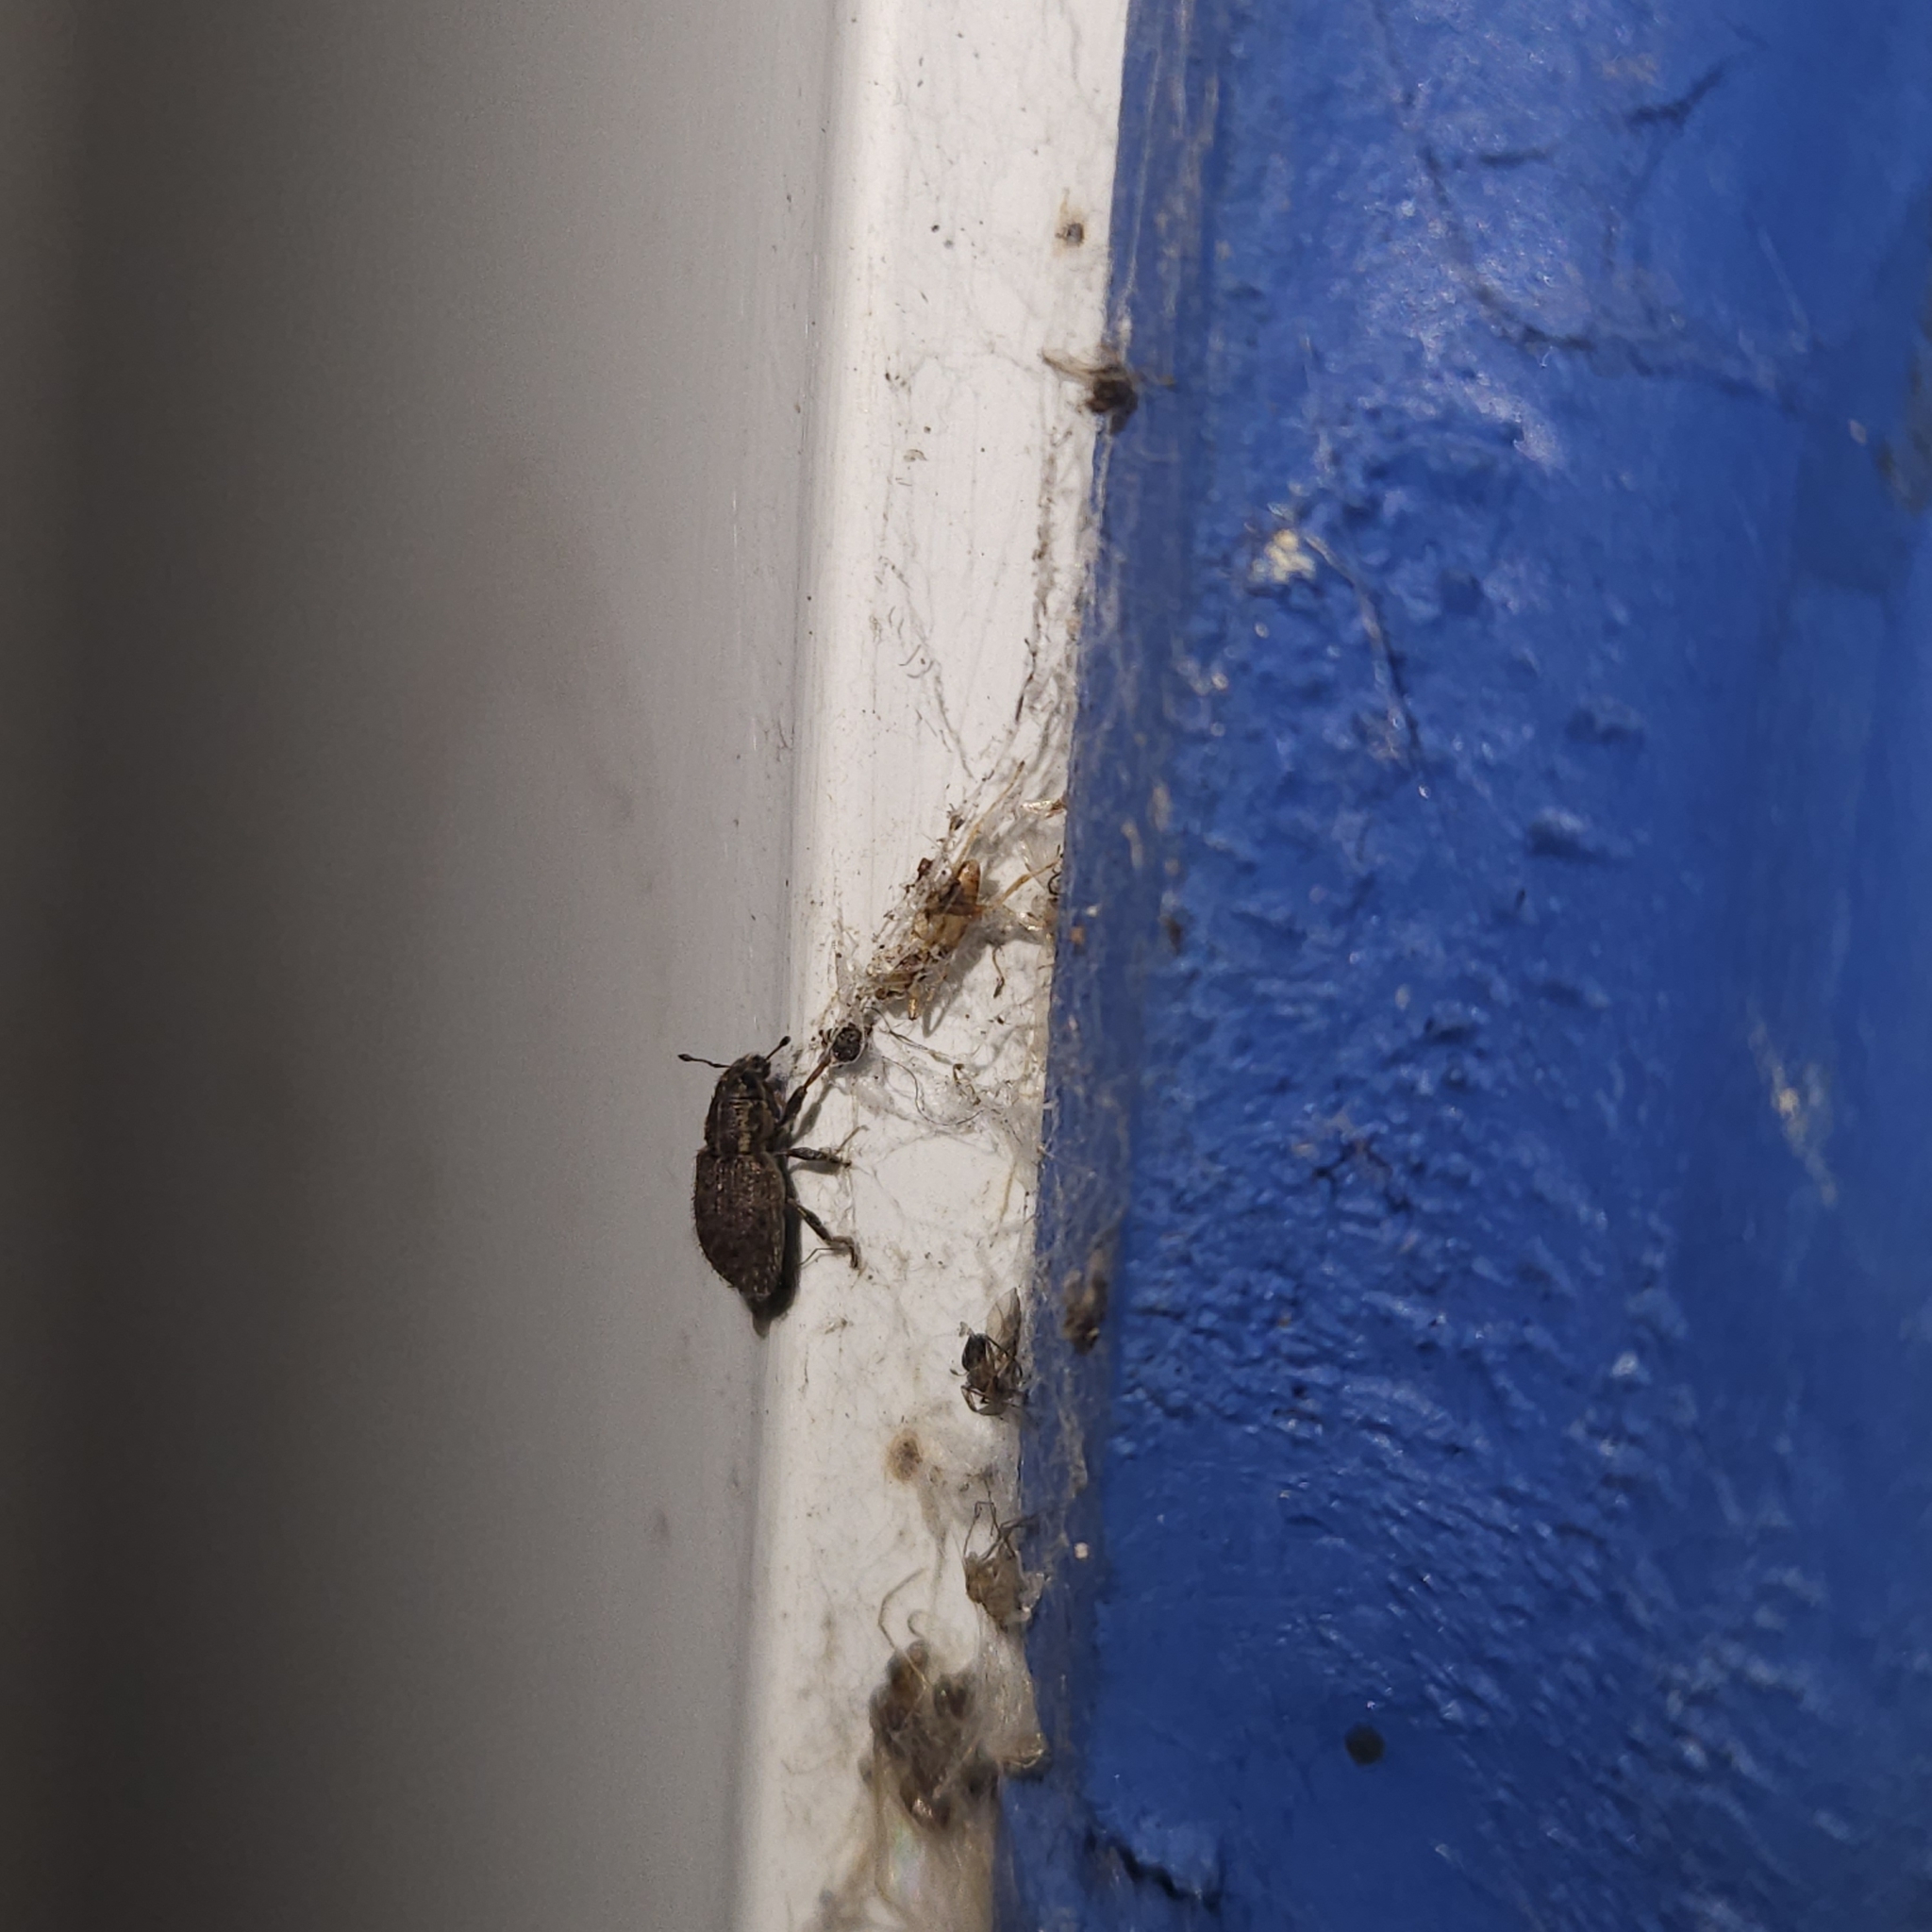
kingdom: Animalia
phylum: Arthropoda
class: Insecta
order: Coleoptera
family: Curculionidae
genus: Sitona
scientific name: Sitona hispidulus
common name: Clover weevil
